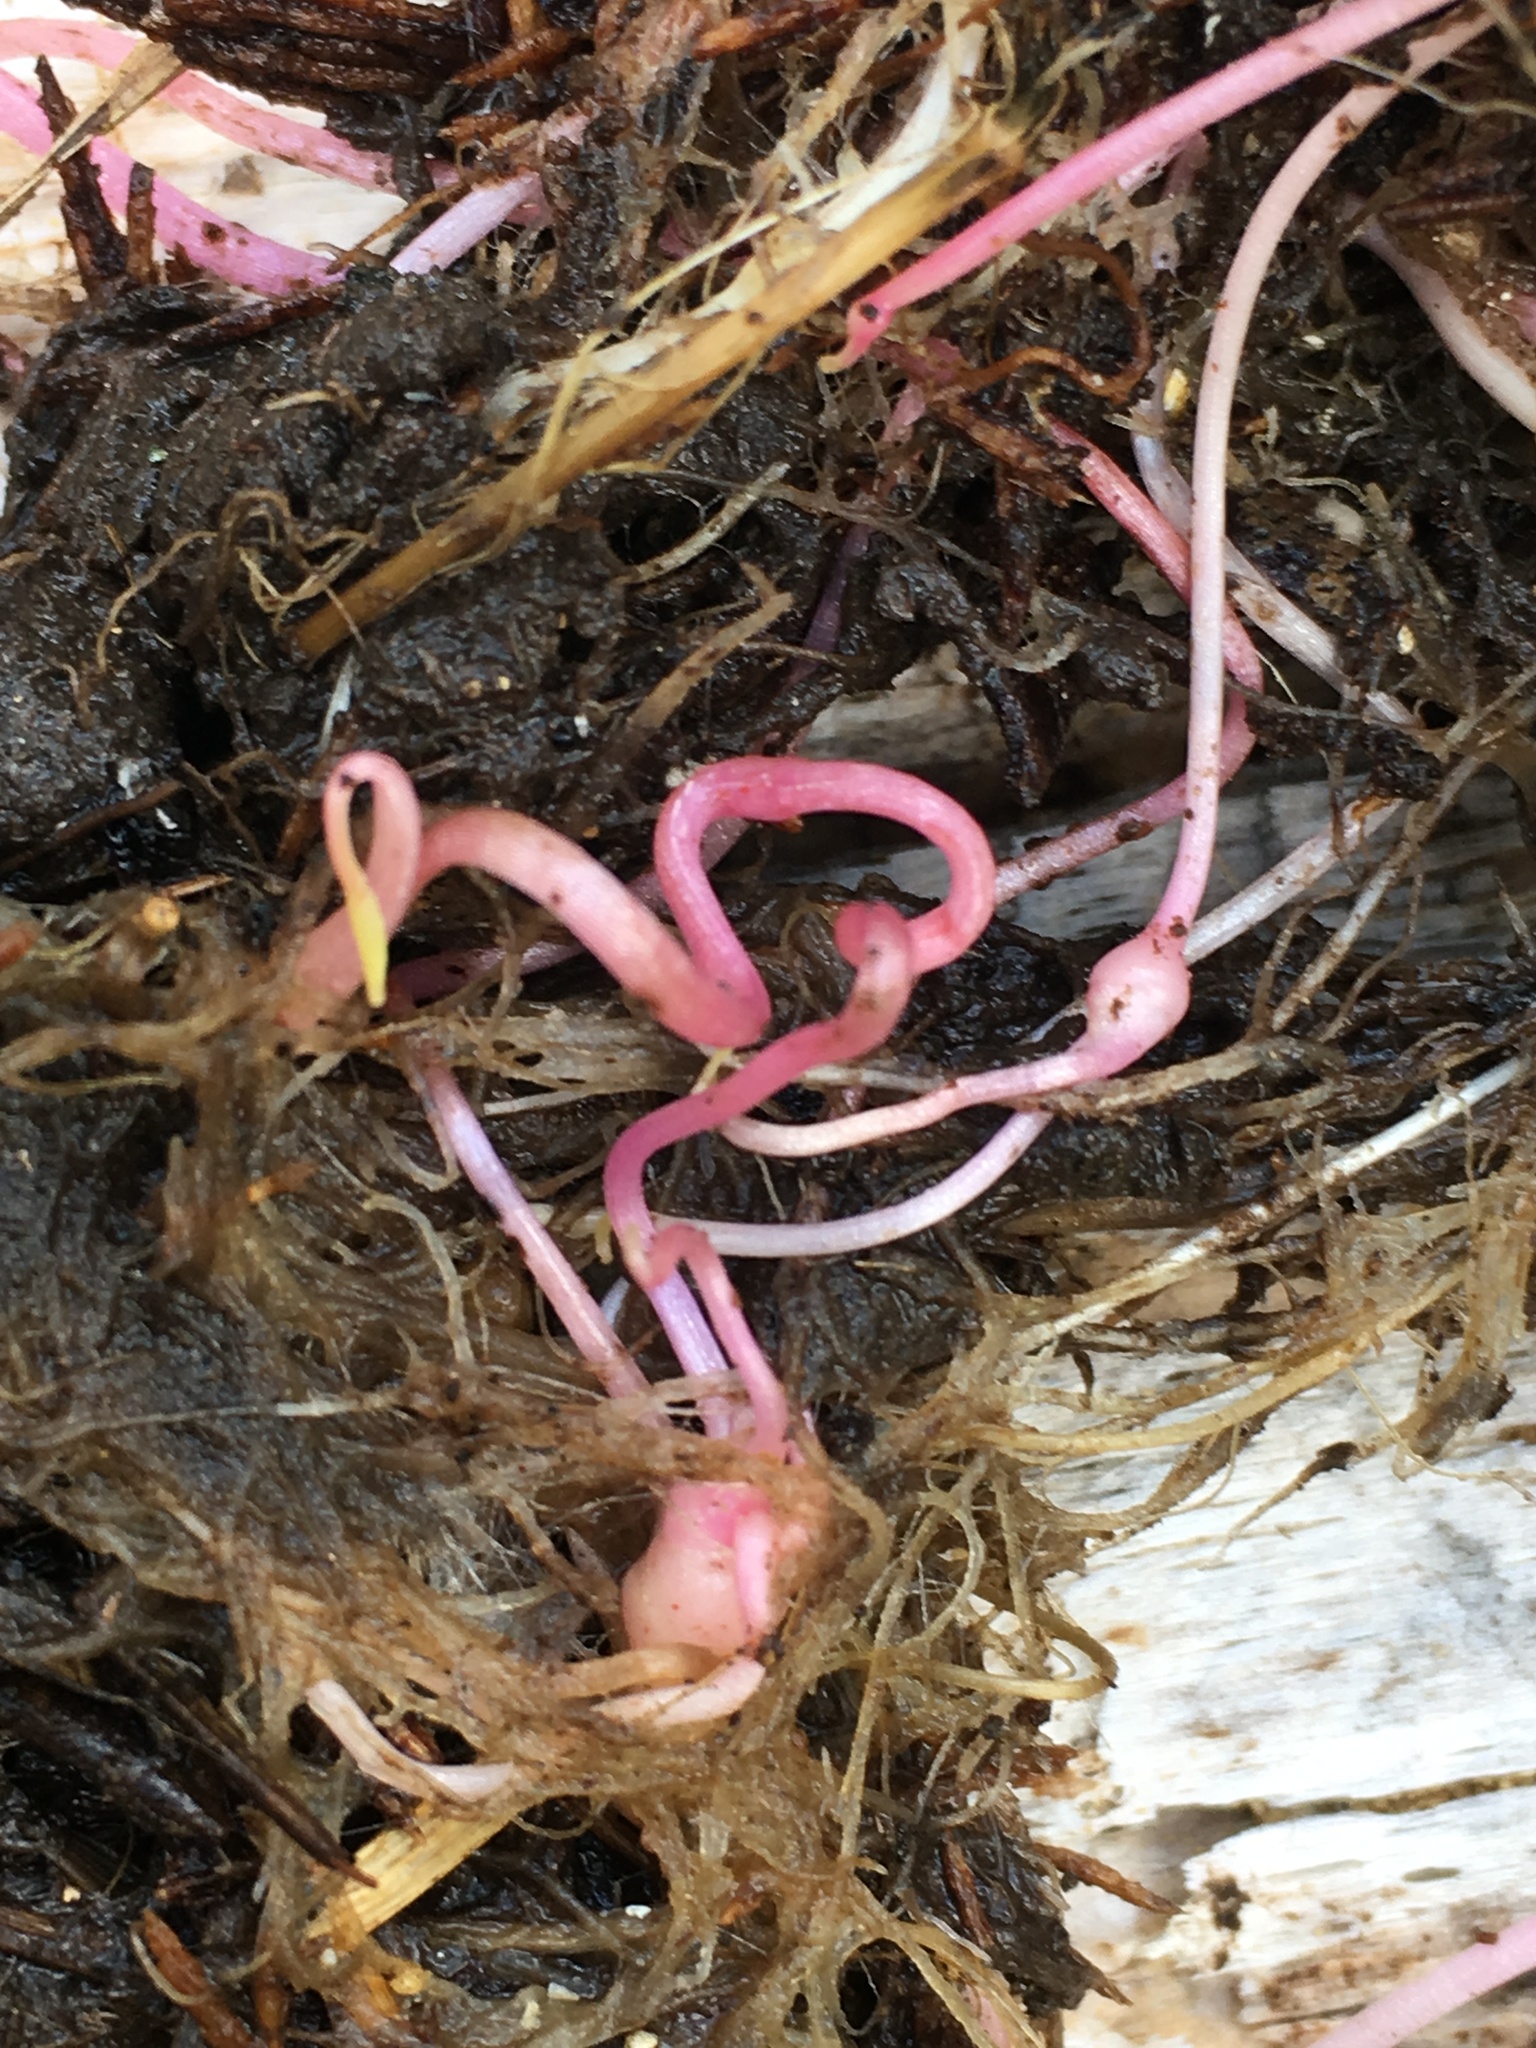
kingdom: Plantae
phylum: Tracheophyta
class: Magnoliopsida
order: Caryophyllales
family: Montiaceae
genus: Claytonia
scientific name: Claytonia palustris
